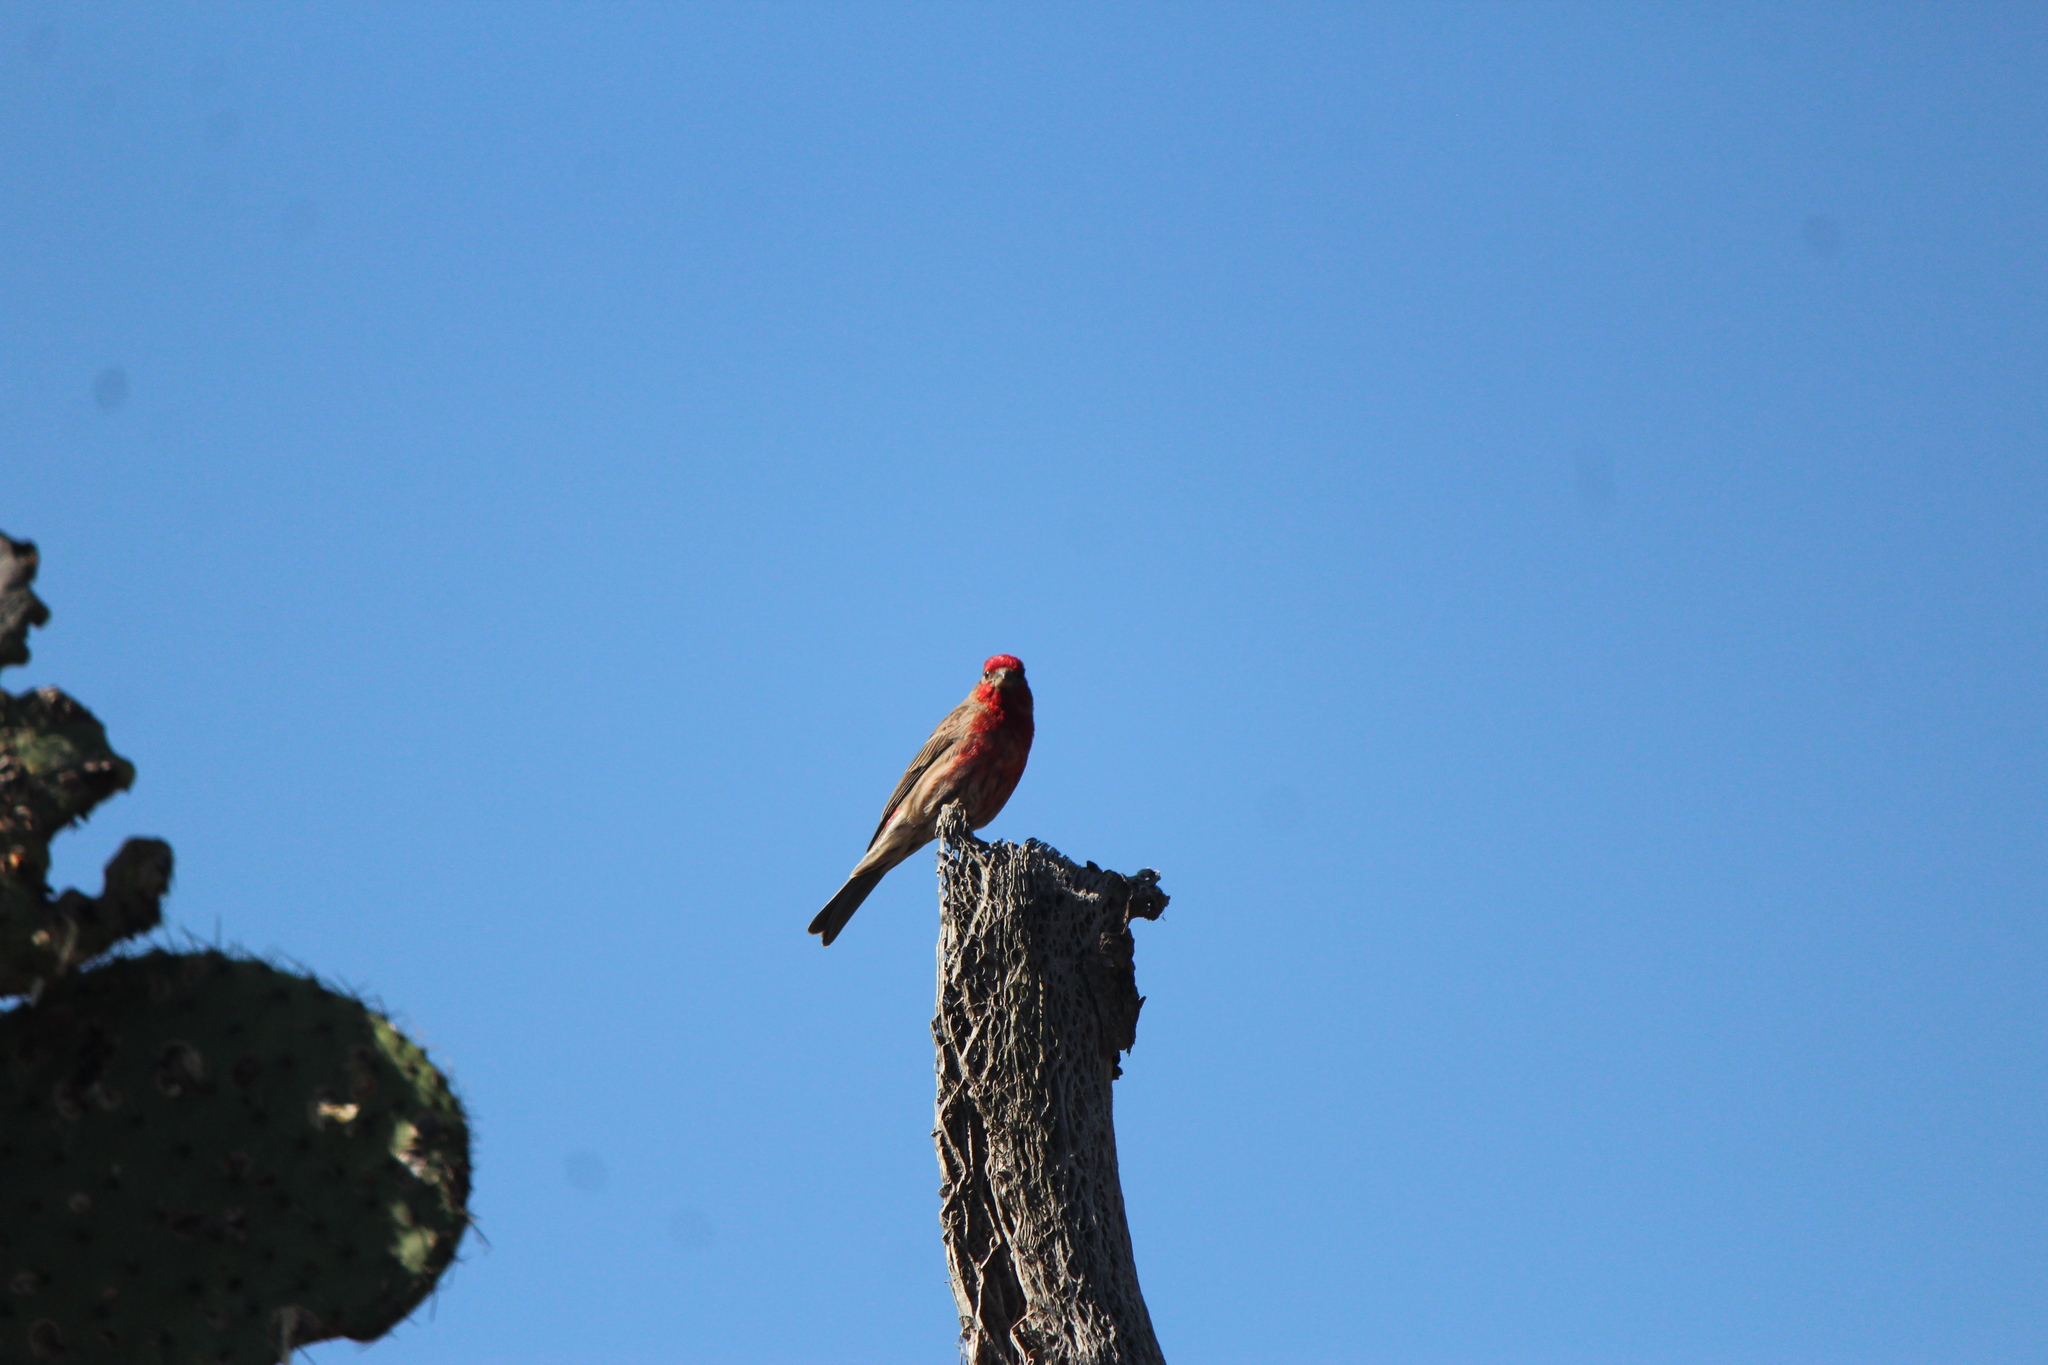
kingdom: Animalia
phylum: Chordata
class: Aves
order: Passeriformes
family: Fringillidae
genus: Haemorhous
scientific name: Haemorhous mexicanus
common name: House finch
